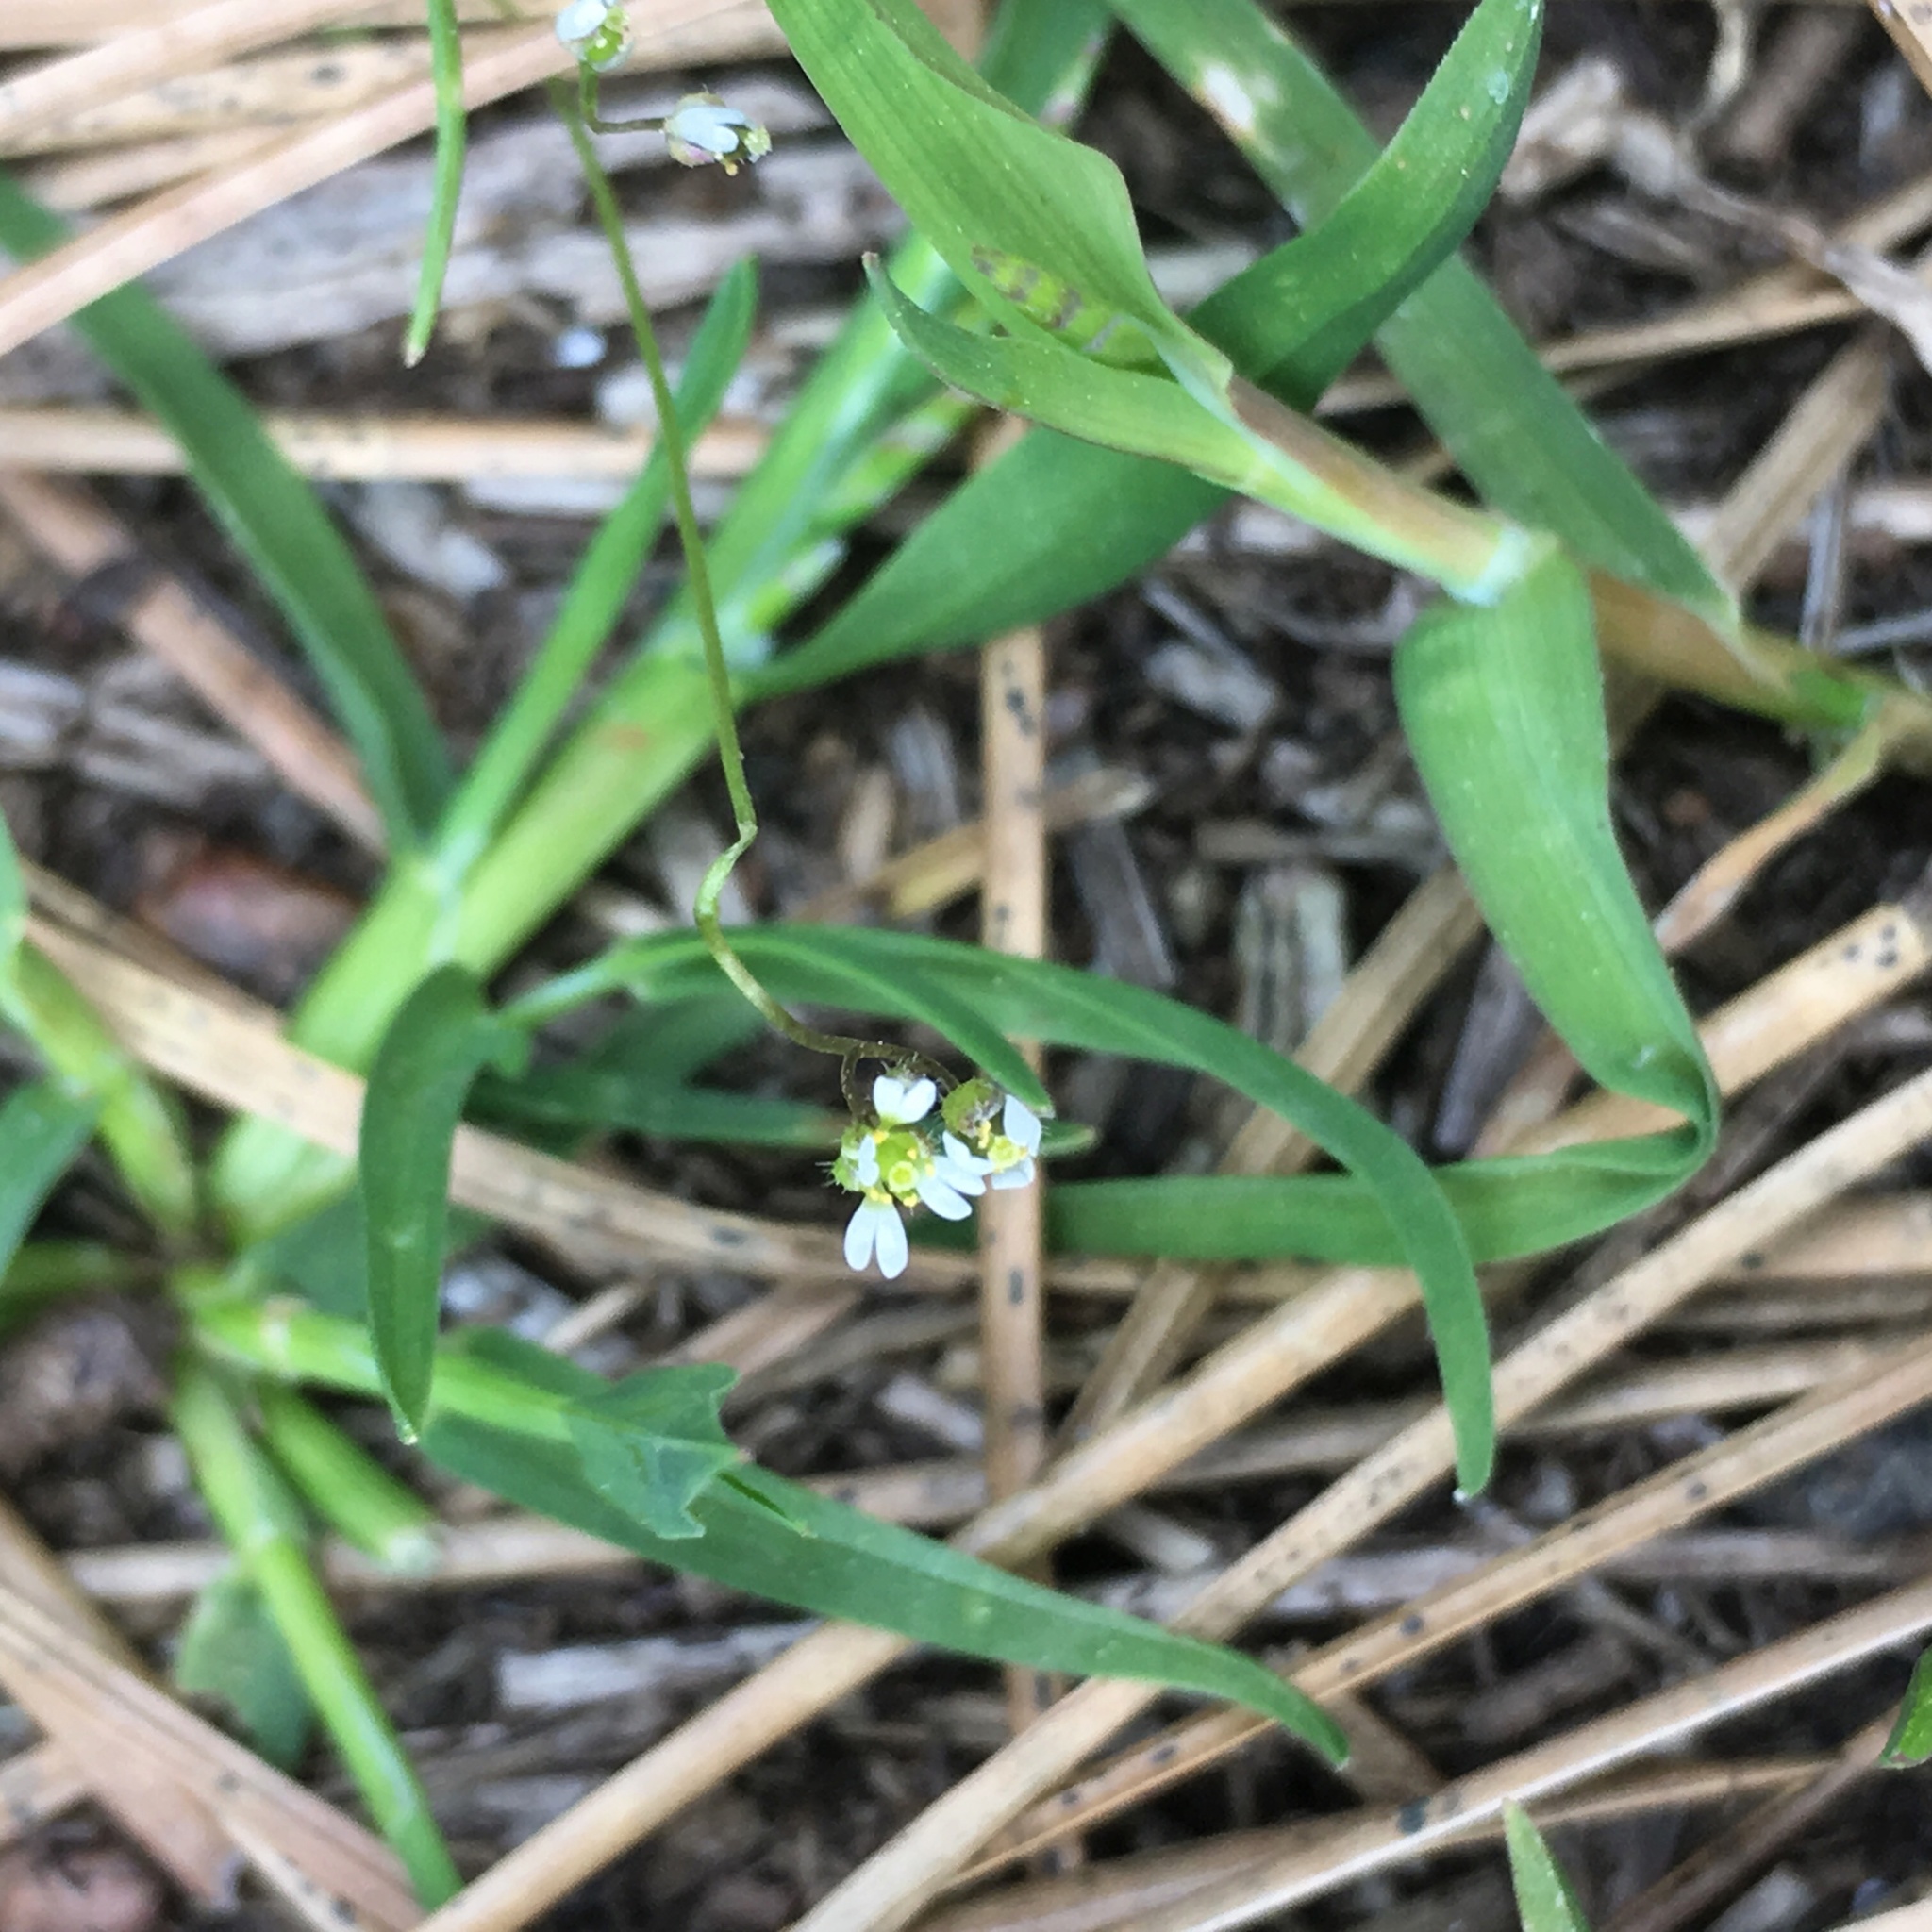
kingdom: Plantae
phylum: Tracheophyta
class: Magnoliopsida
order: Brassicales
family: Brassicaceae
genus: Draba
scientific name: Draba verna
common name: Spring draba
